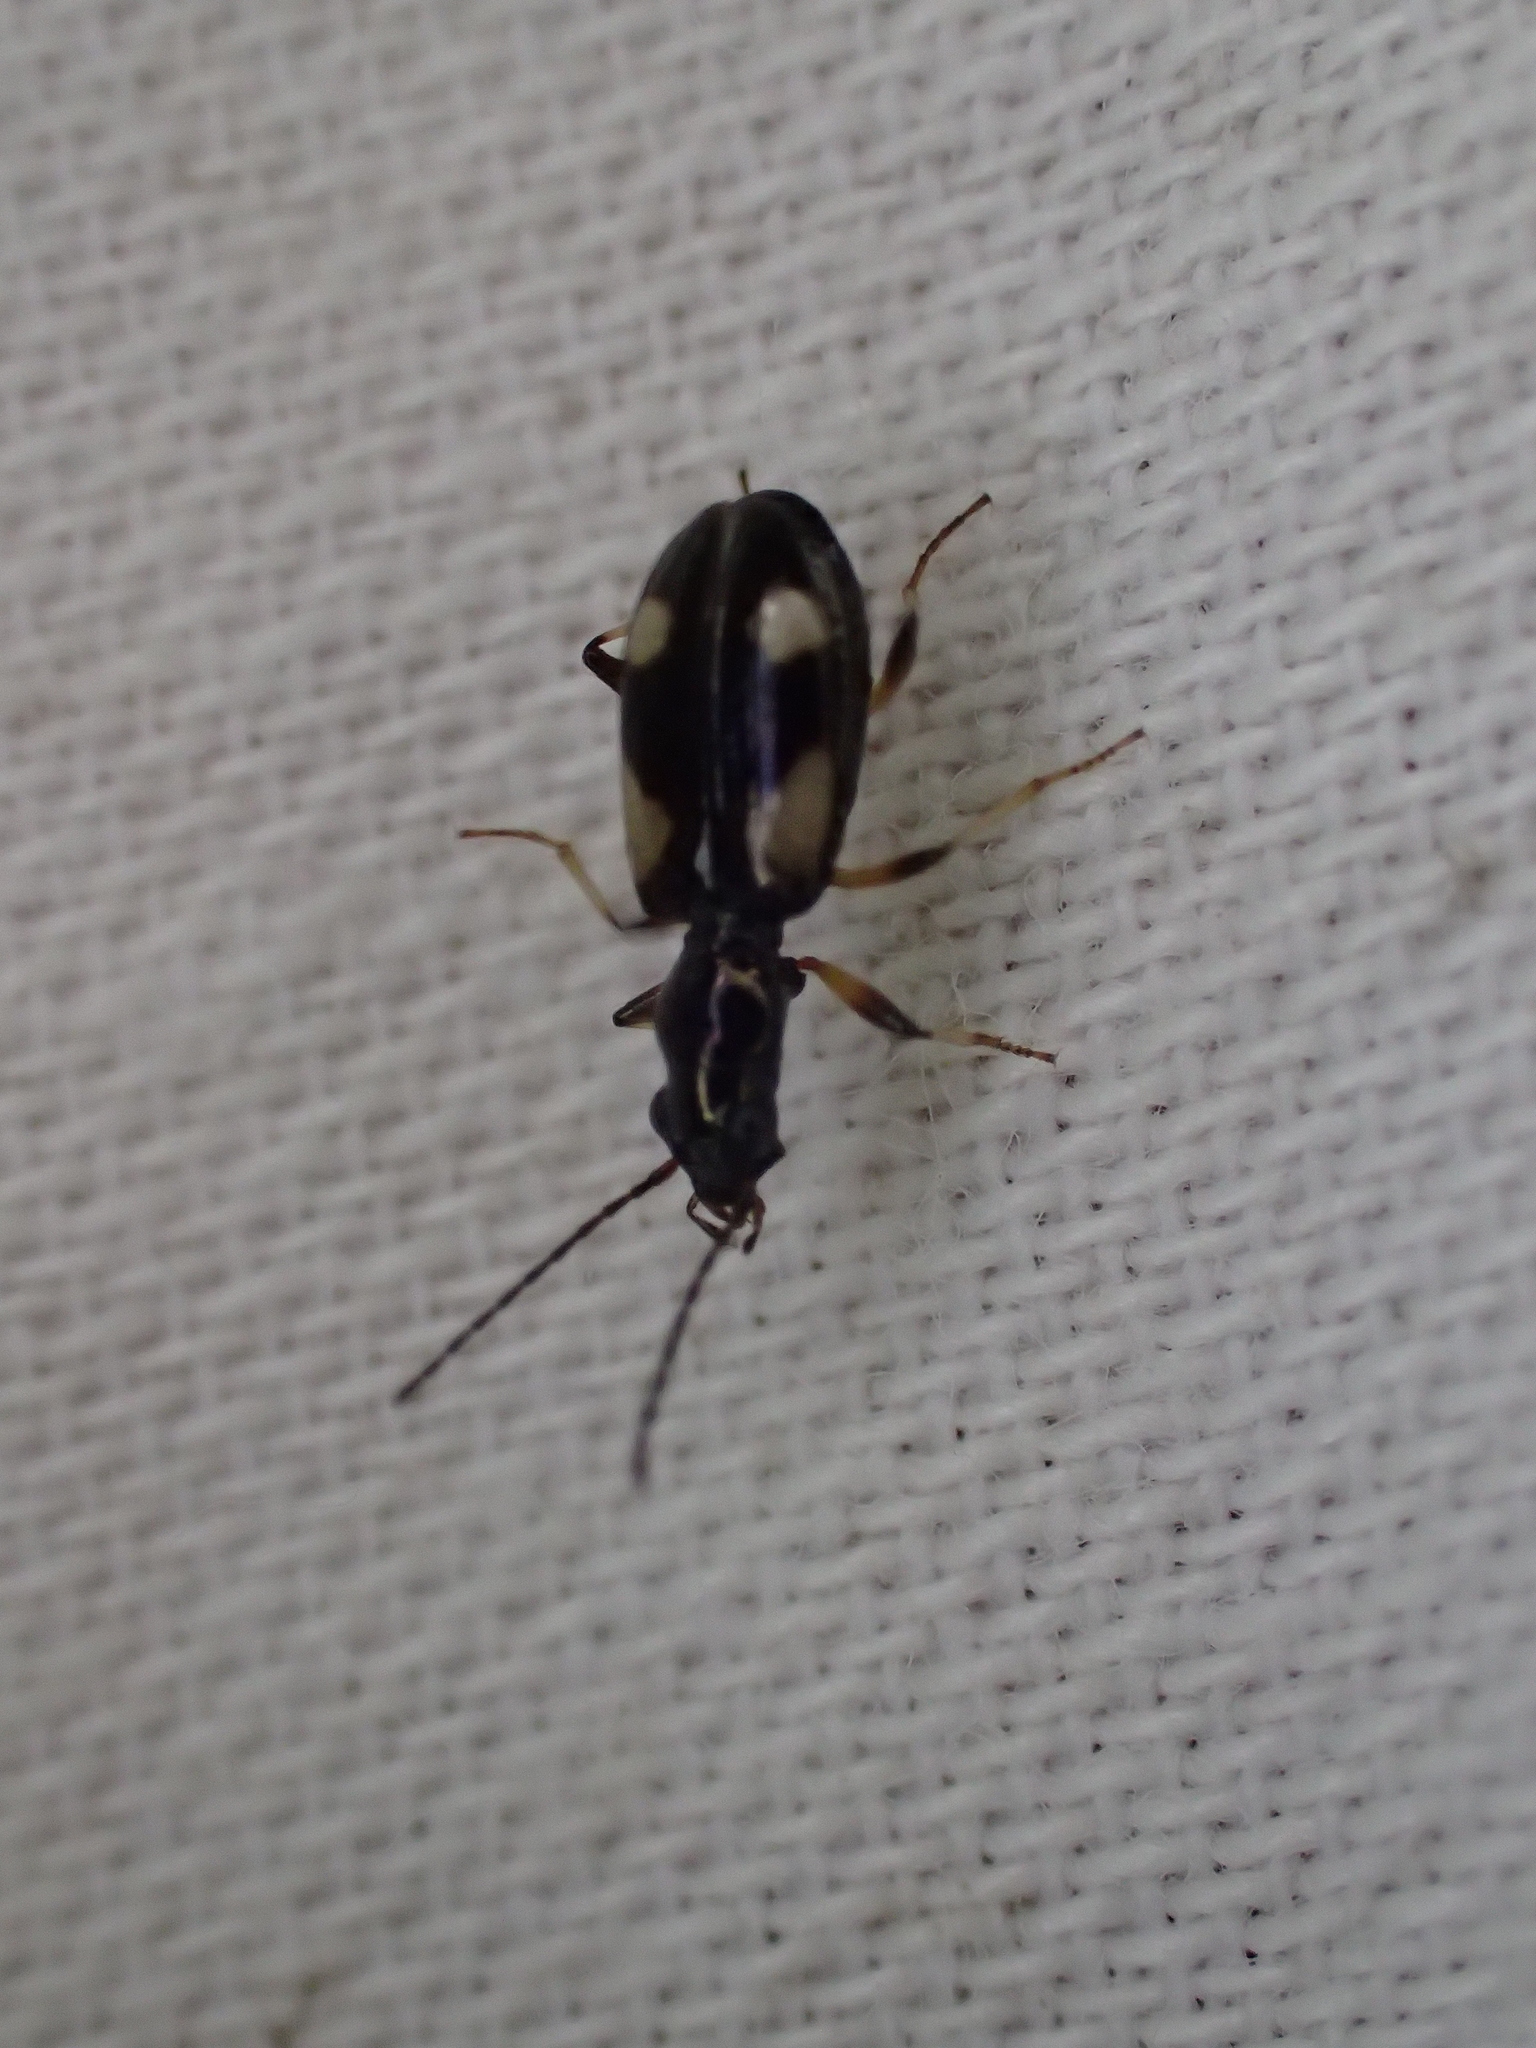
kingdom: Animalia
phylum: Arthropoda
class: Insecta
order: Coleoptera
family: Carabidae
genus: Bembidion
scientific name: Bembidion genei
